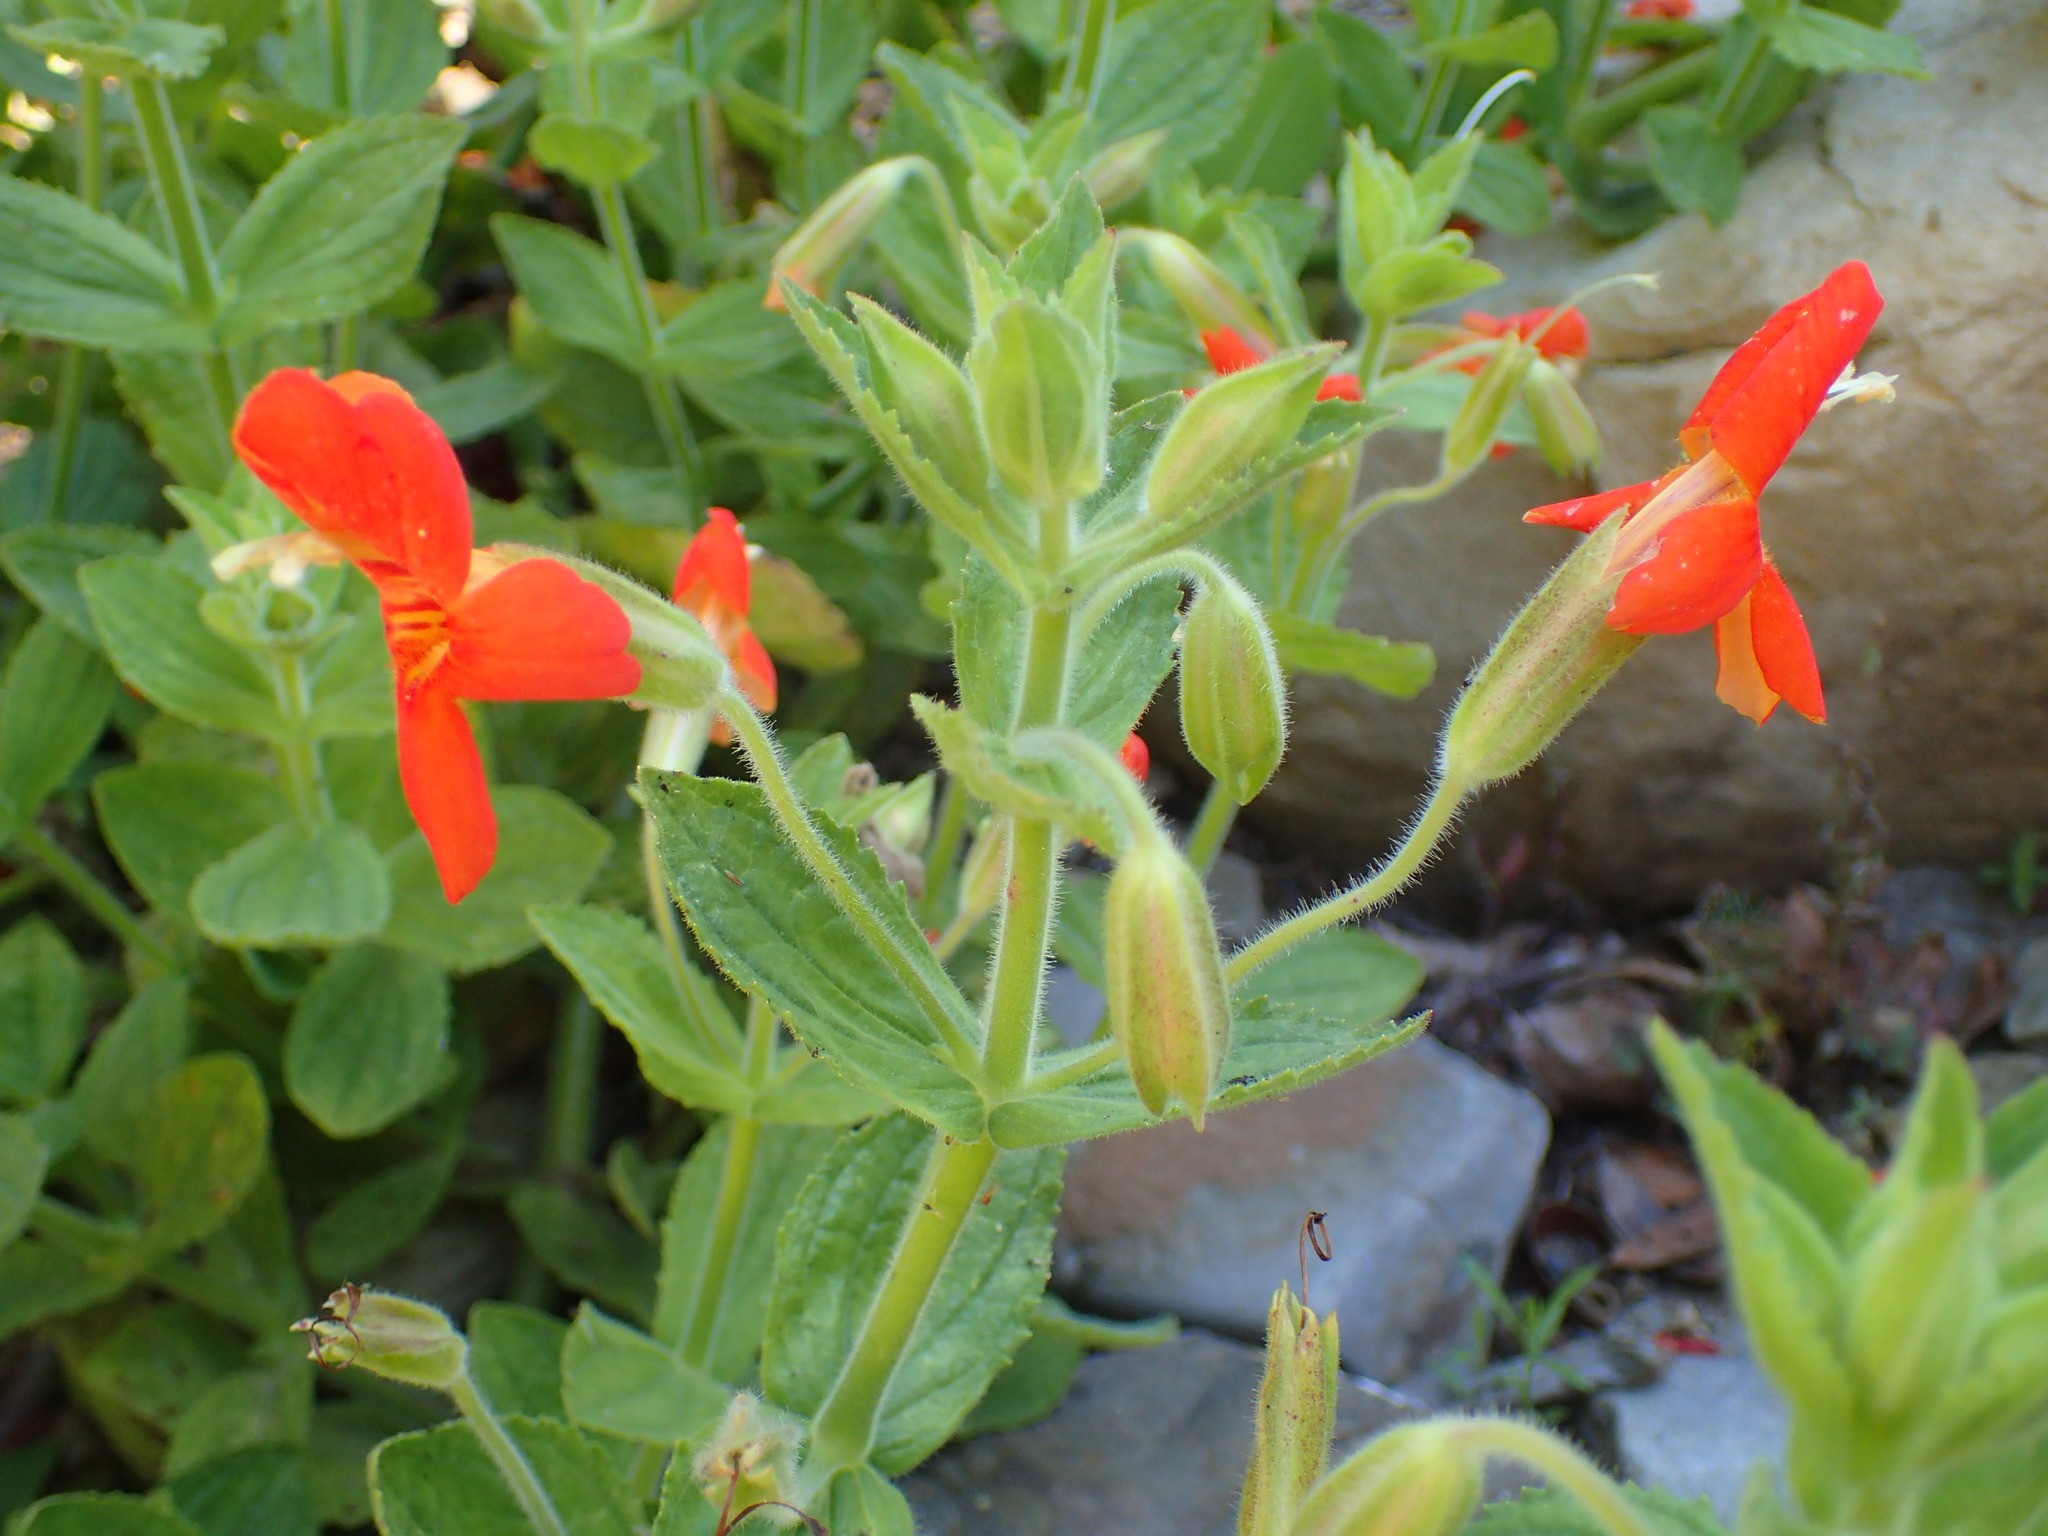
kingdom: Plantae
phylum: Tracheophyta
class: Magnoliopsida
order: Lamiales
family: Phrymaceae
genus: Erythranthe
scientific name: Erythranthe cardinalis
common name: Scarlet monkey-flower
